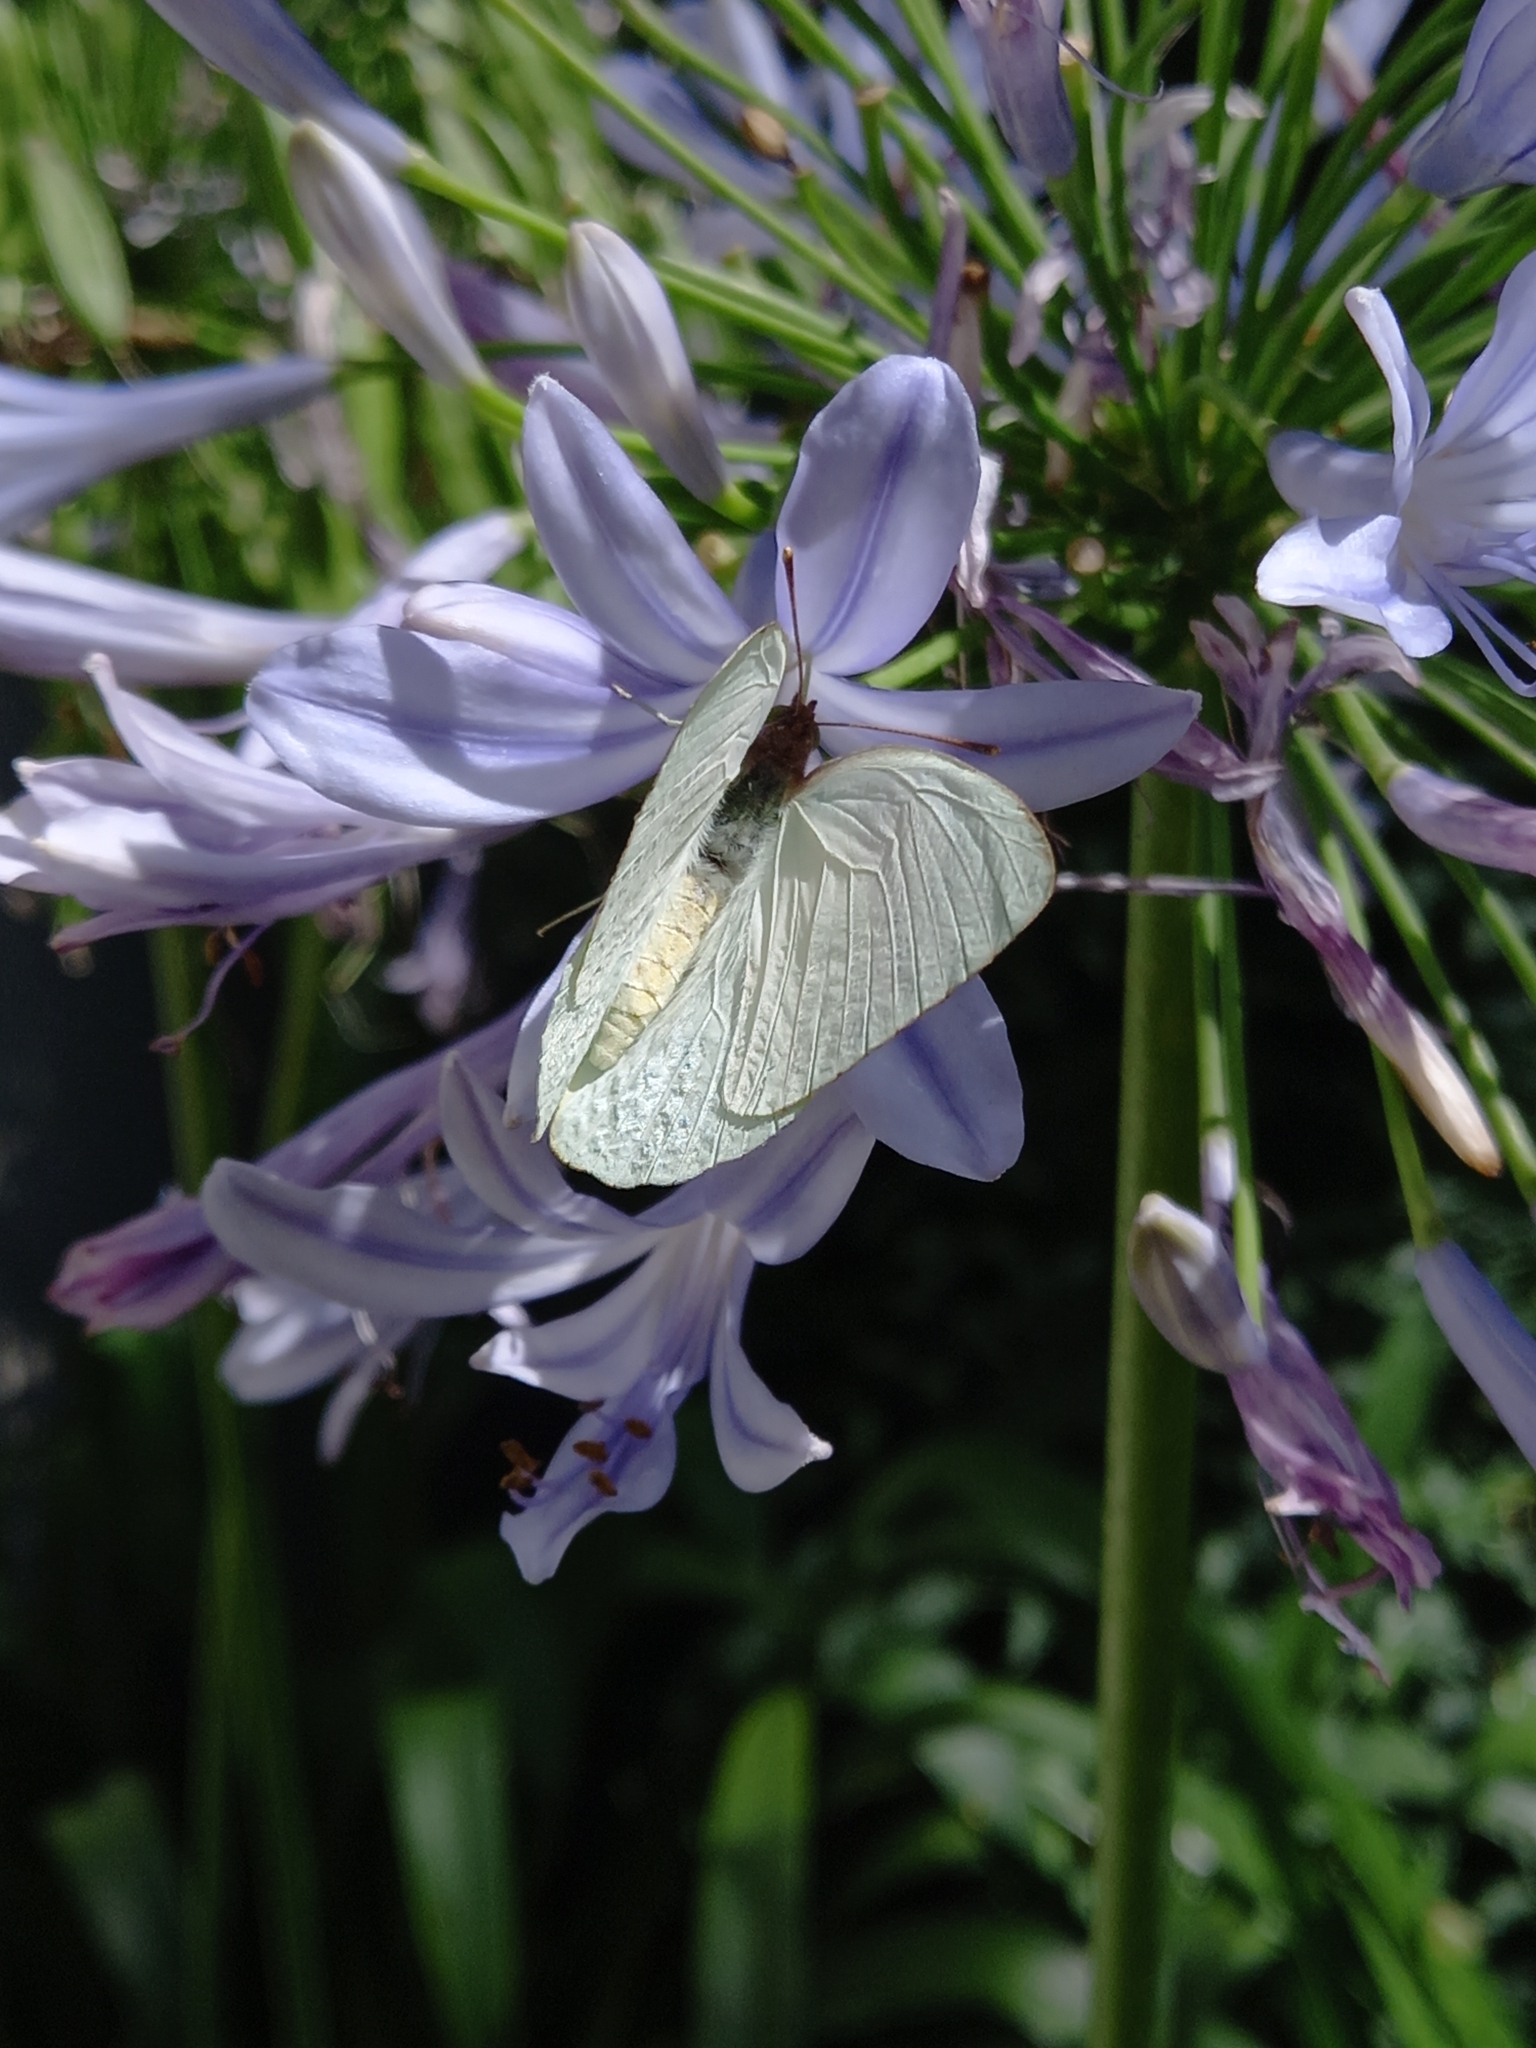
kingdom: Animalia
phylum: Arthropoda
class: Insecta
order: Lepidoptera
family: Pieridae
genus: Nepheronia
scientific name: Nepheronia buquetii
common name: Plain vagrant
